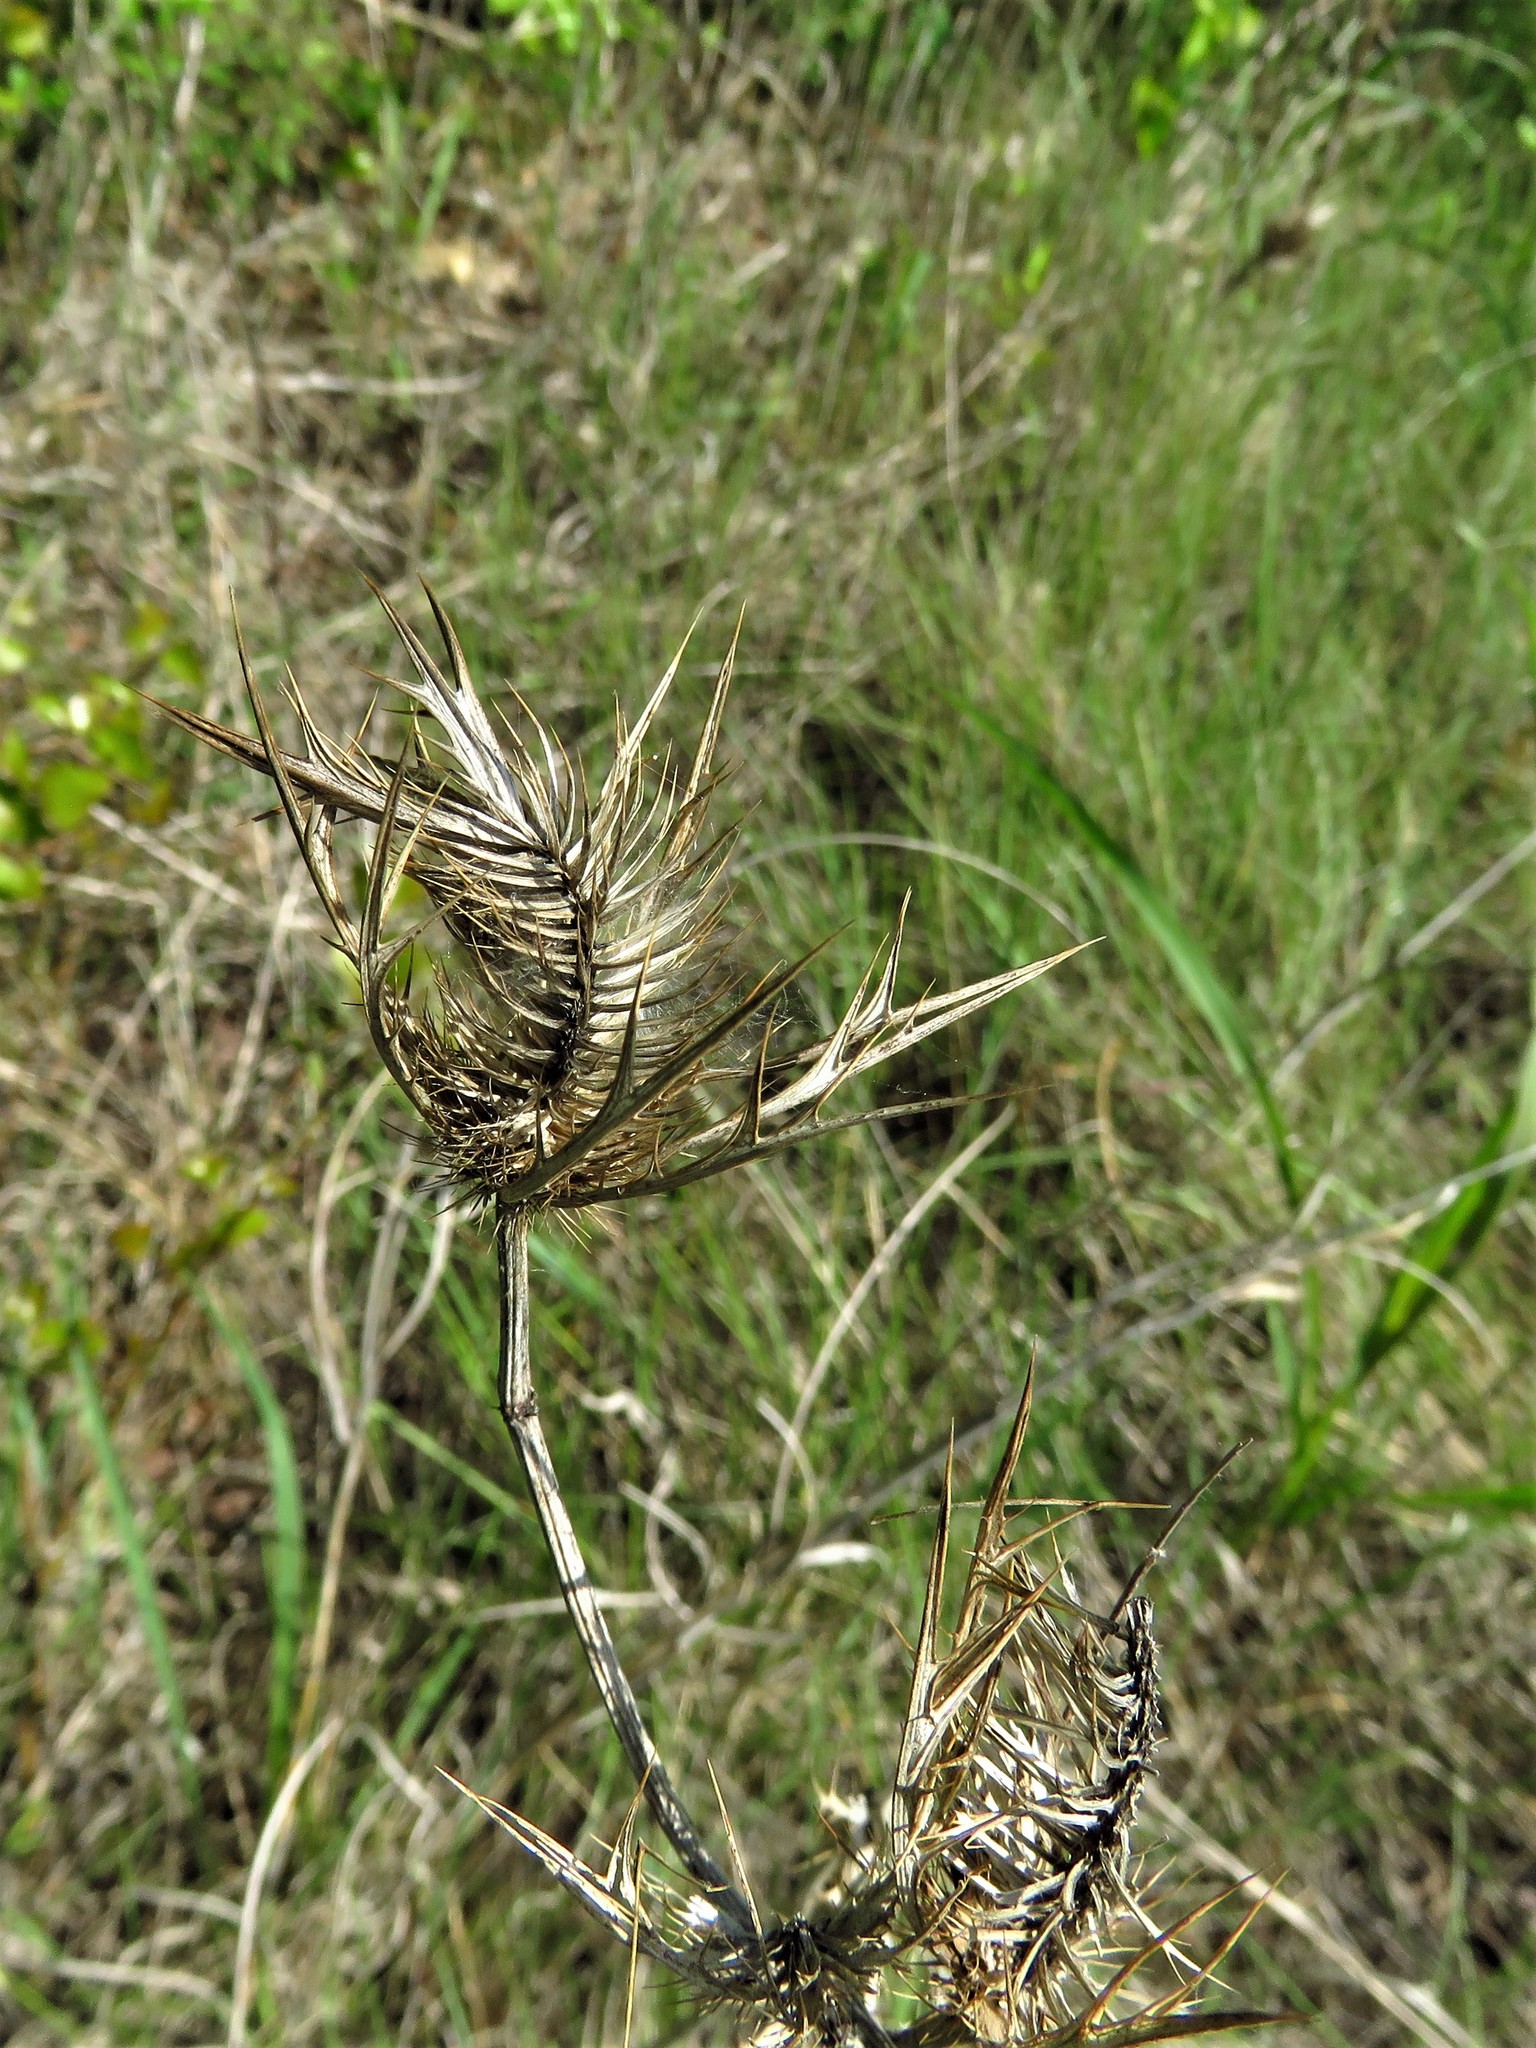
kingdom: Plantae
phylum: Tracheophyta
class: Magnoliopsida
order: Apiales
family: Apiaceae
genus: Eryngium
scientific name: Eryngium leavenworthii
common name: Leavenworth's eryngo
